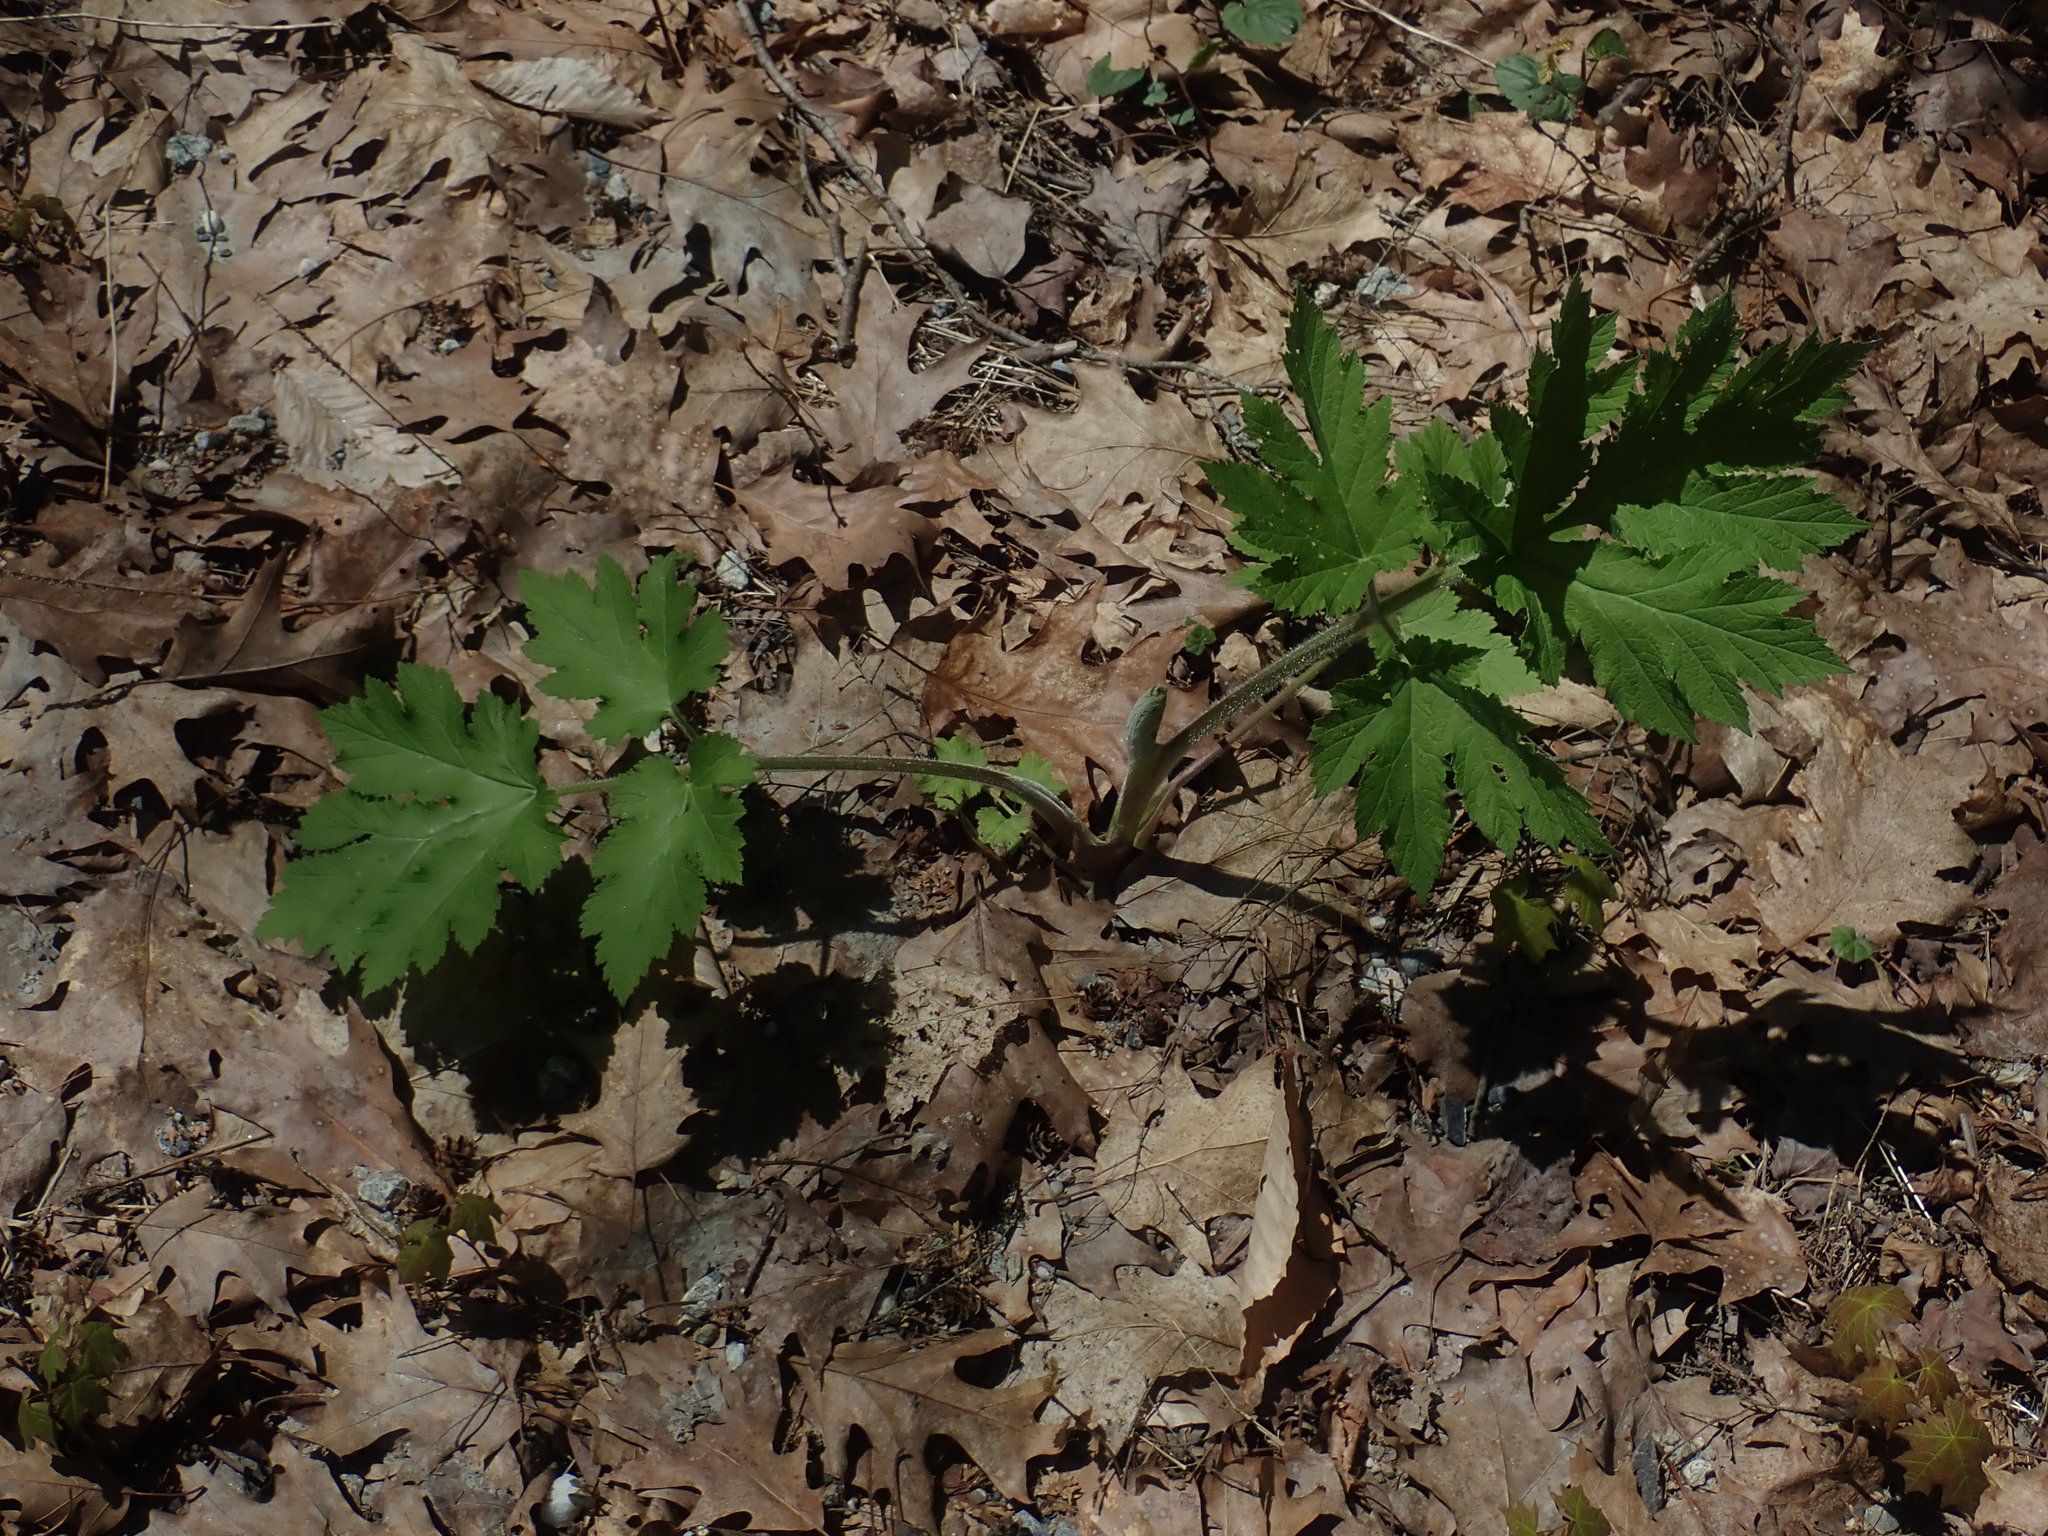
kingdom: Plantae
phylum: Tracheophyta
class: Magnoliopsida
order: Apiales
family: Apiaceae
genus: Heracleum
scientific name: Heracleum maximum
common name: American cow parsnip
